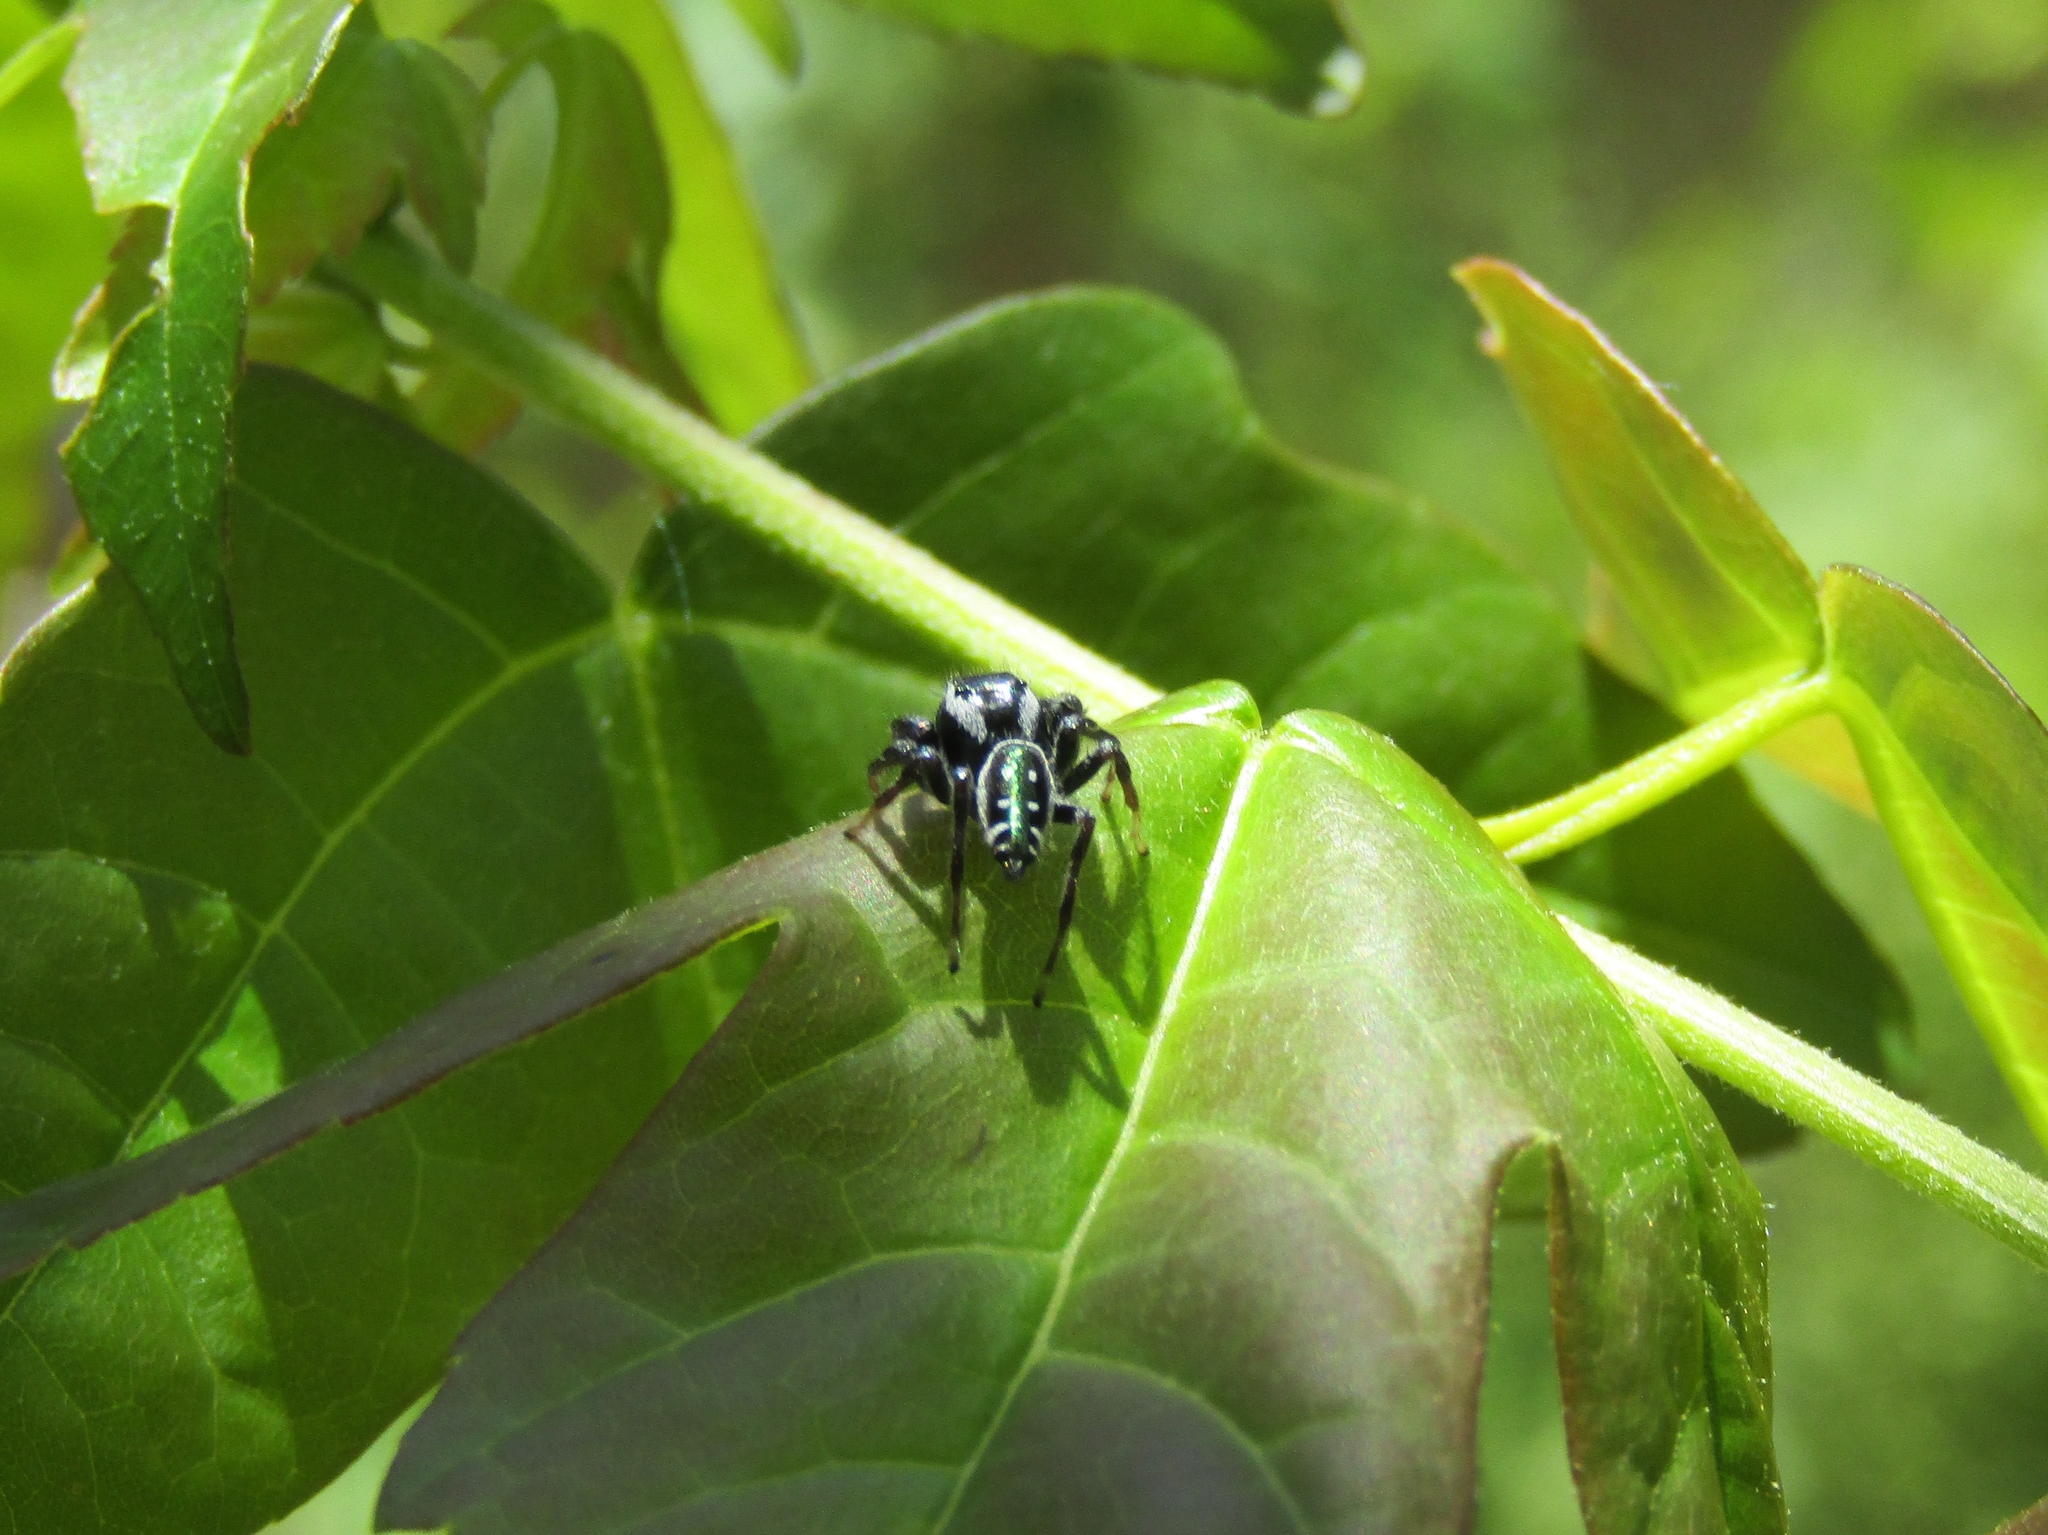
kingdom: Animalia
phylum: Arthropoda
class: Arachnida
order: Araneae
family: Salticidae
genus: Paraphidippus
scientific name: Paraphidippus aurantius
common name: Jumping spiders
